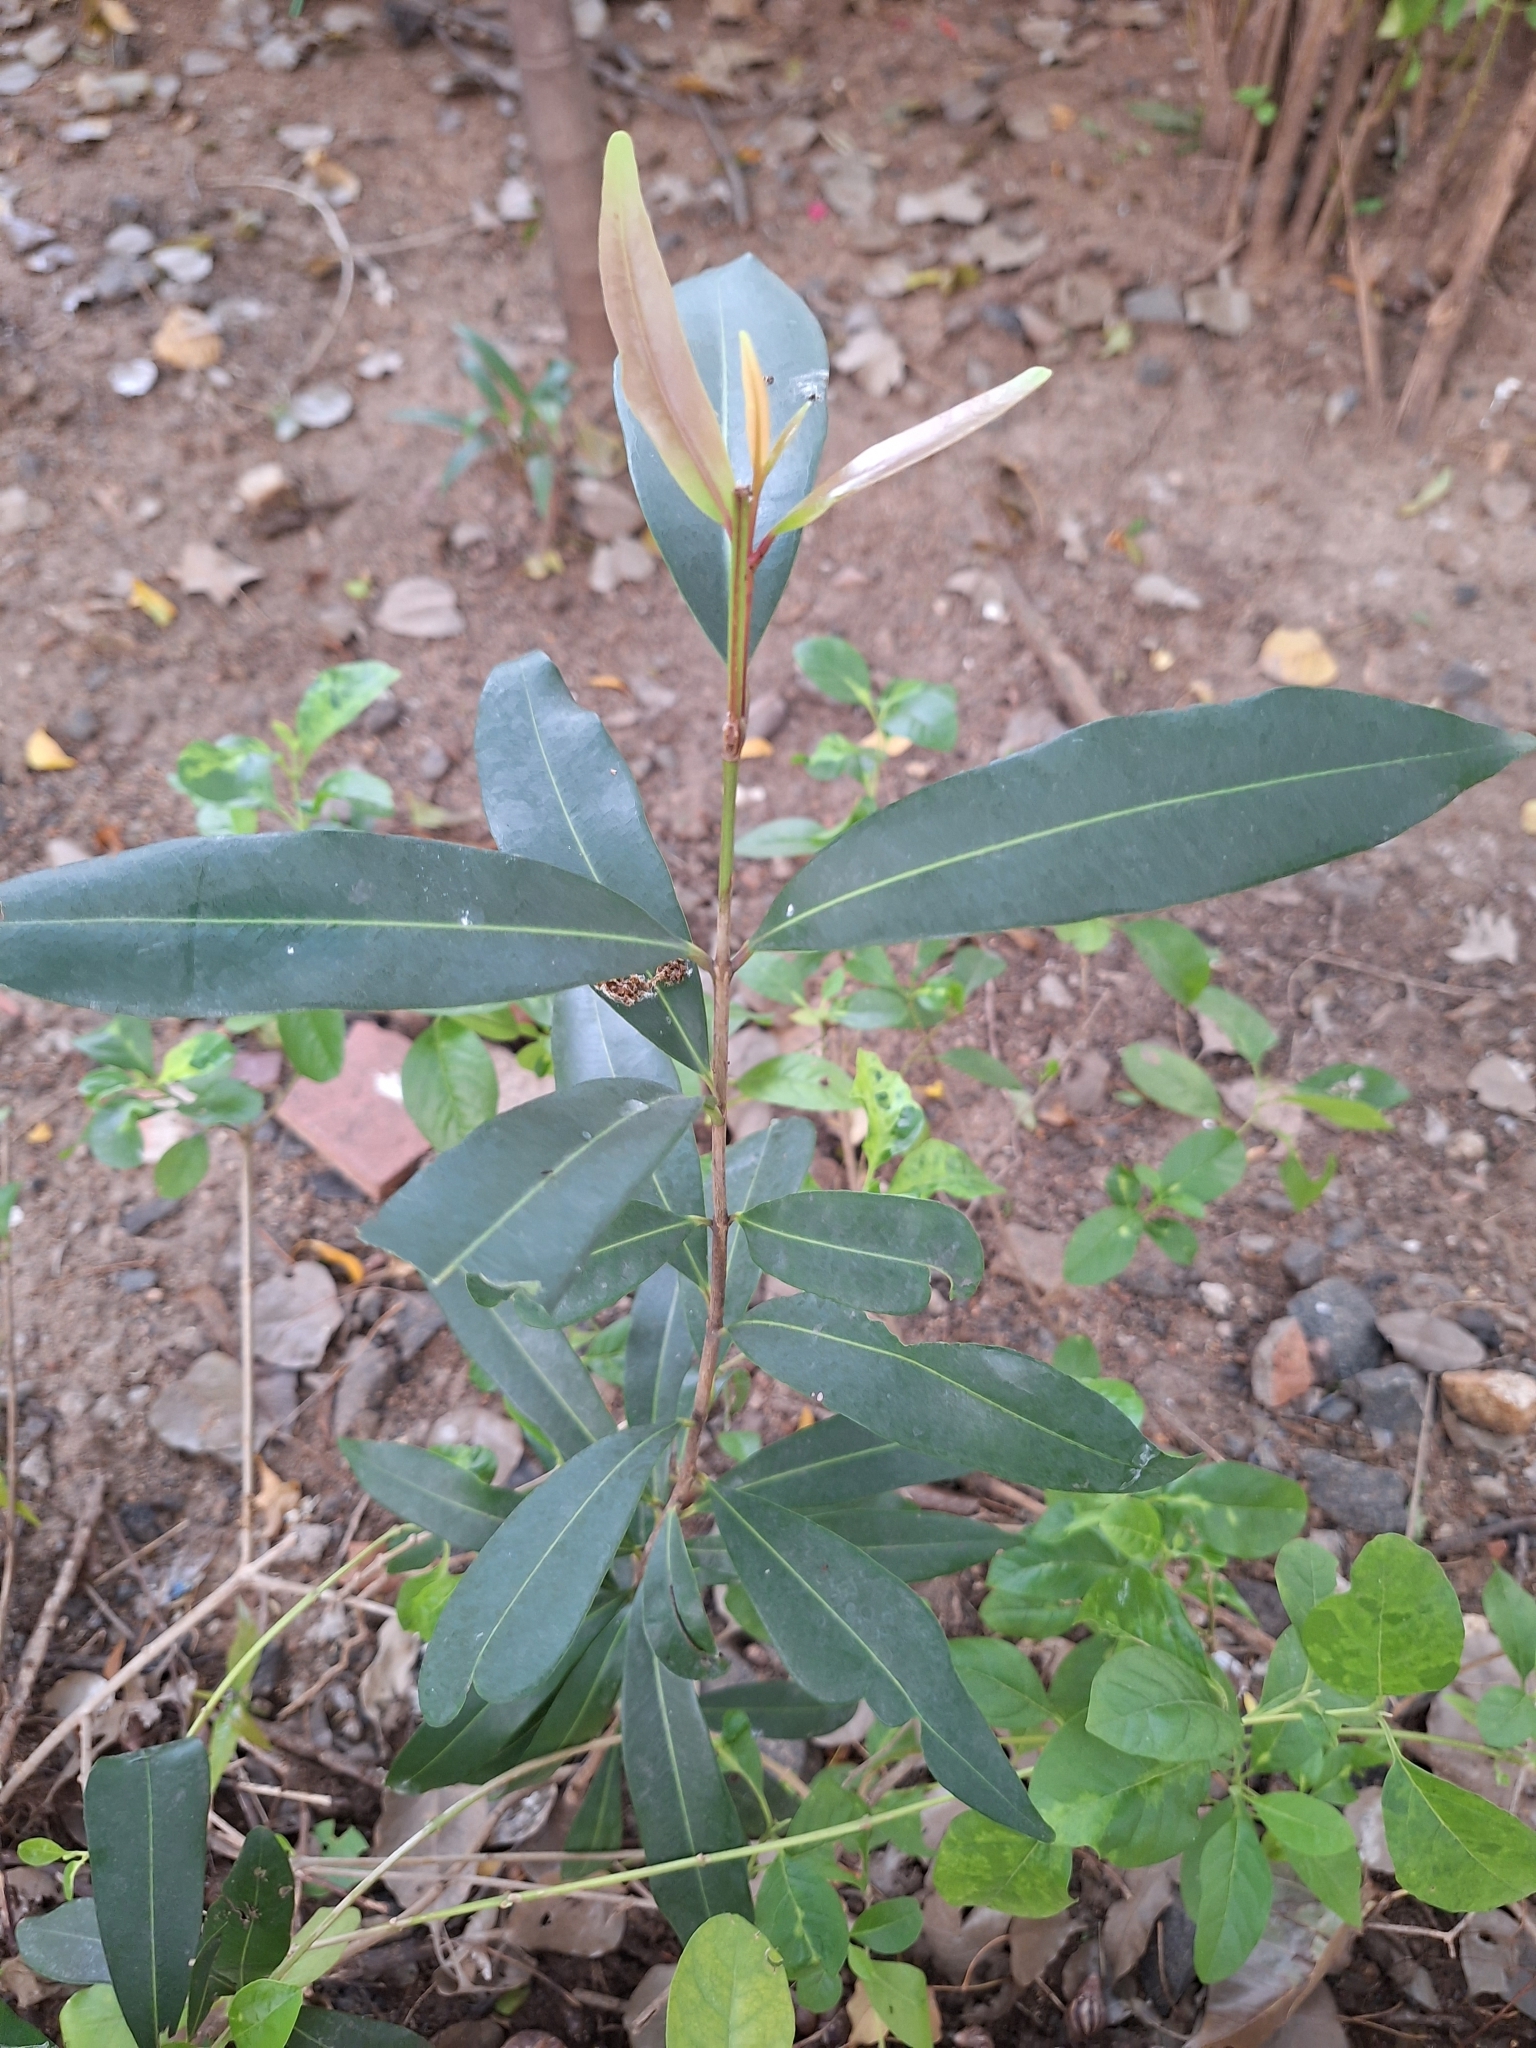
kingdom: Plantae
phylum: Tracheophyta
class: Magnoliopsida
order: Myrtales
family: Myrtaceae
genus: Syzygium
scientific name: Syzygium cumini
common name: Java plum
